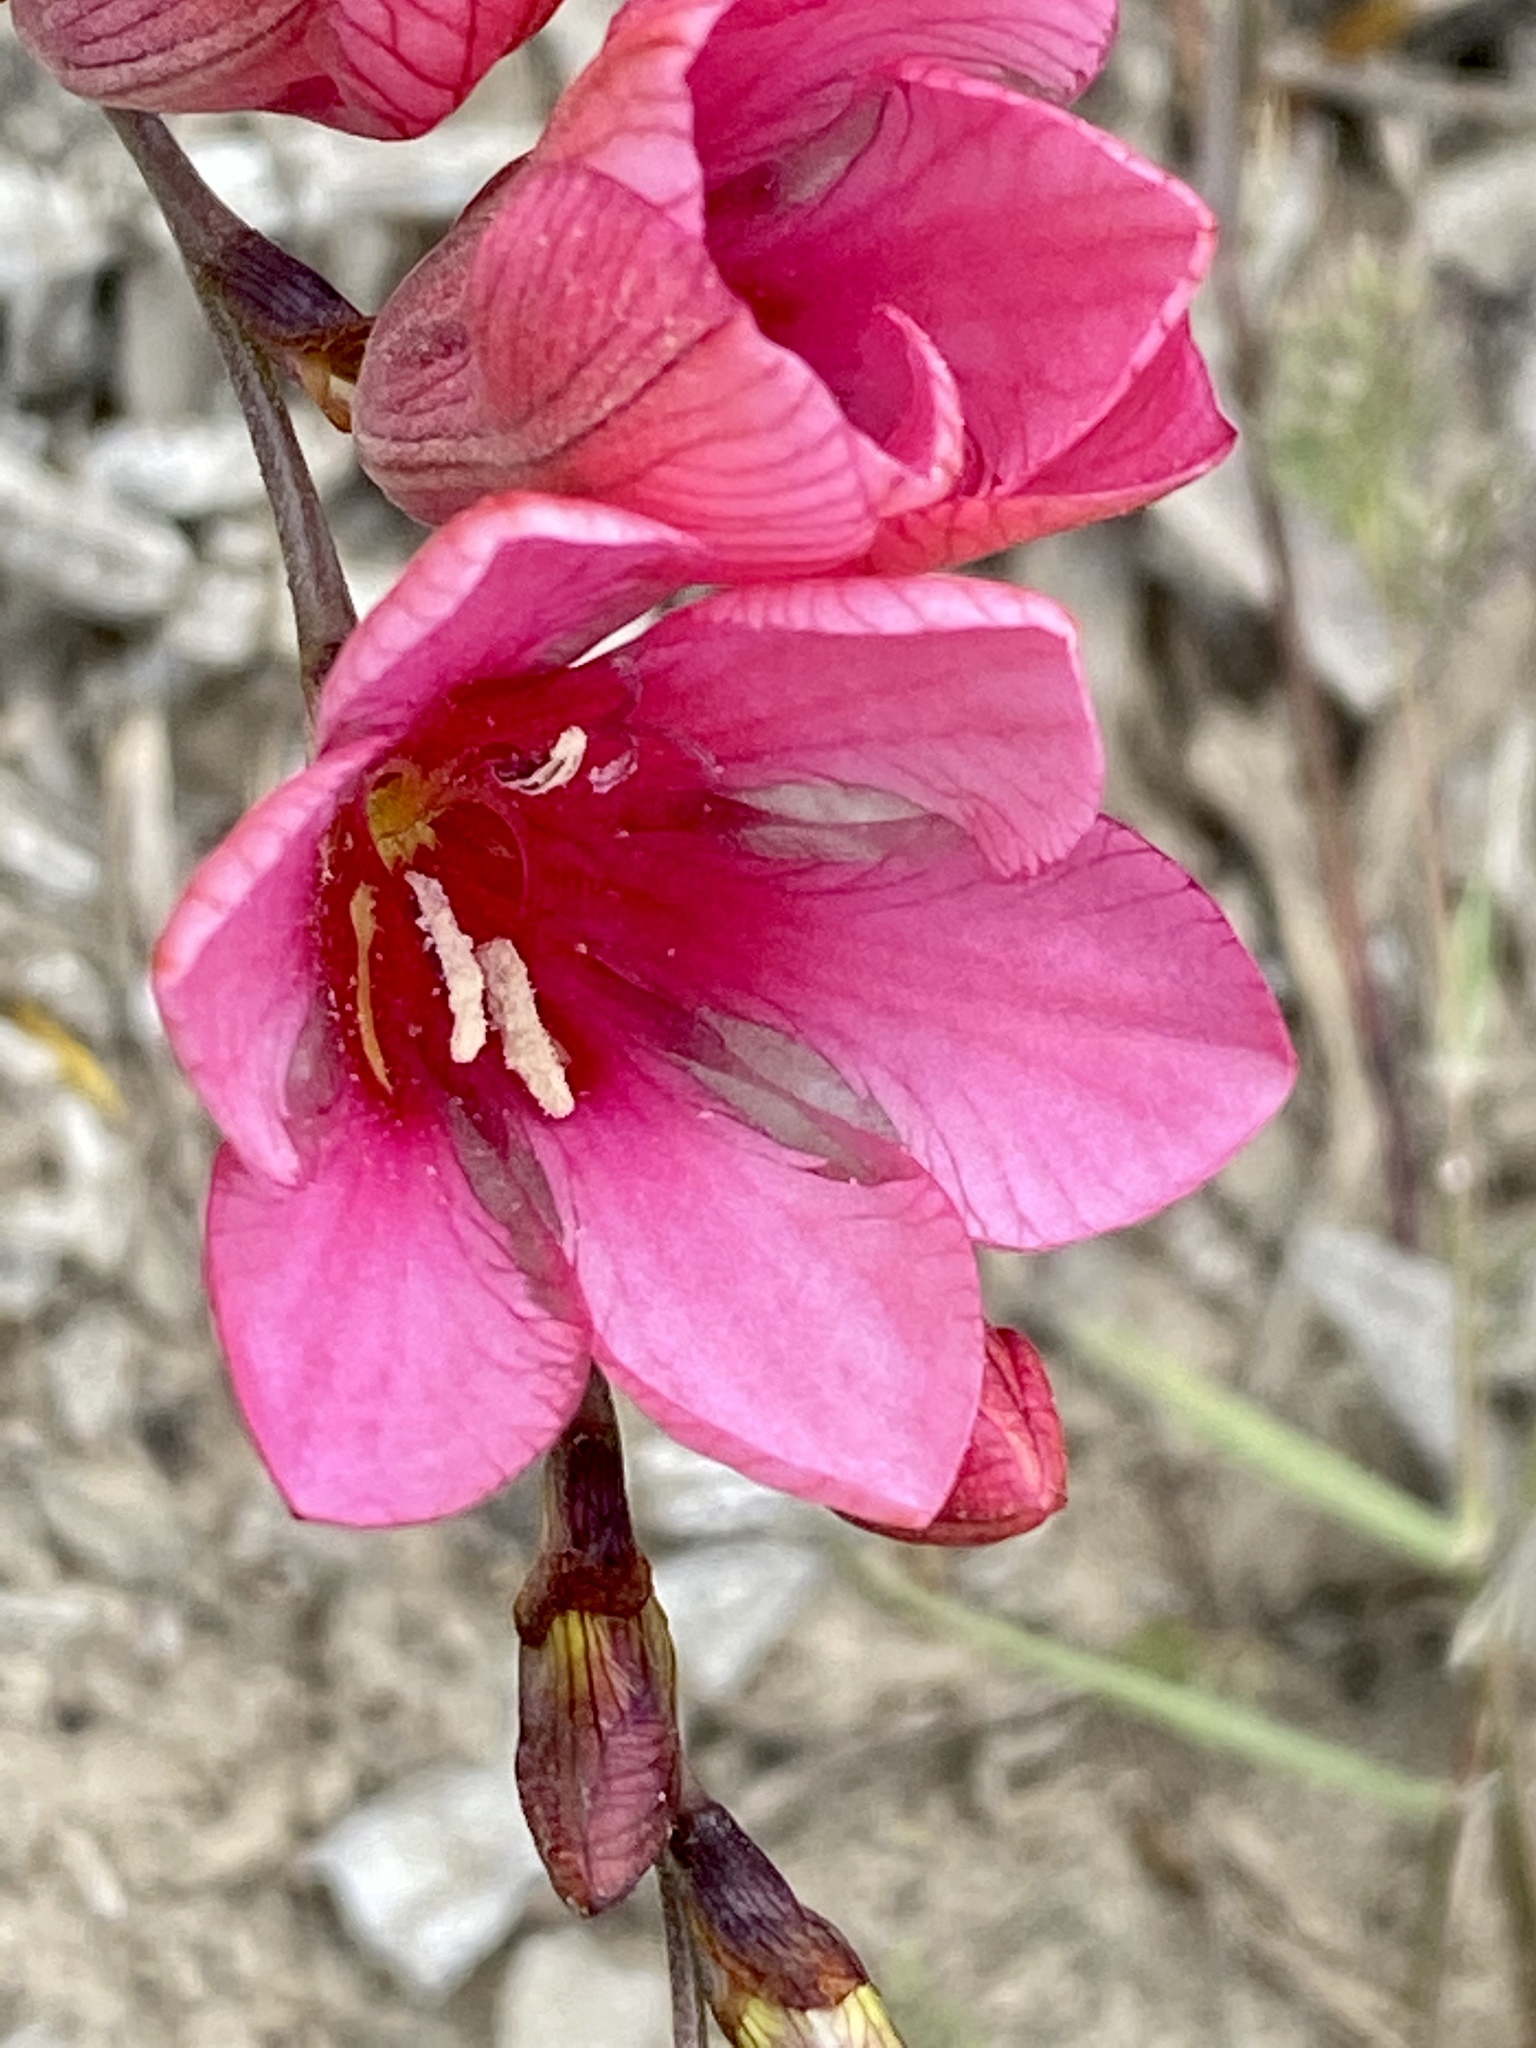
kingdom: Plantae
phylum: Tracheophyta
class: Liliopsida
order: Asparagales
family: Iridaceae
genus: Tritonia
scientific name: Tritonia squalida
